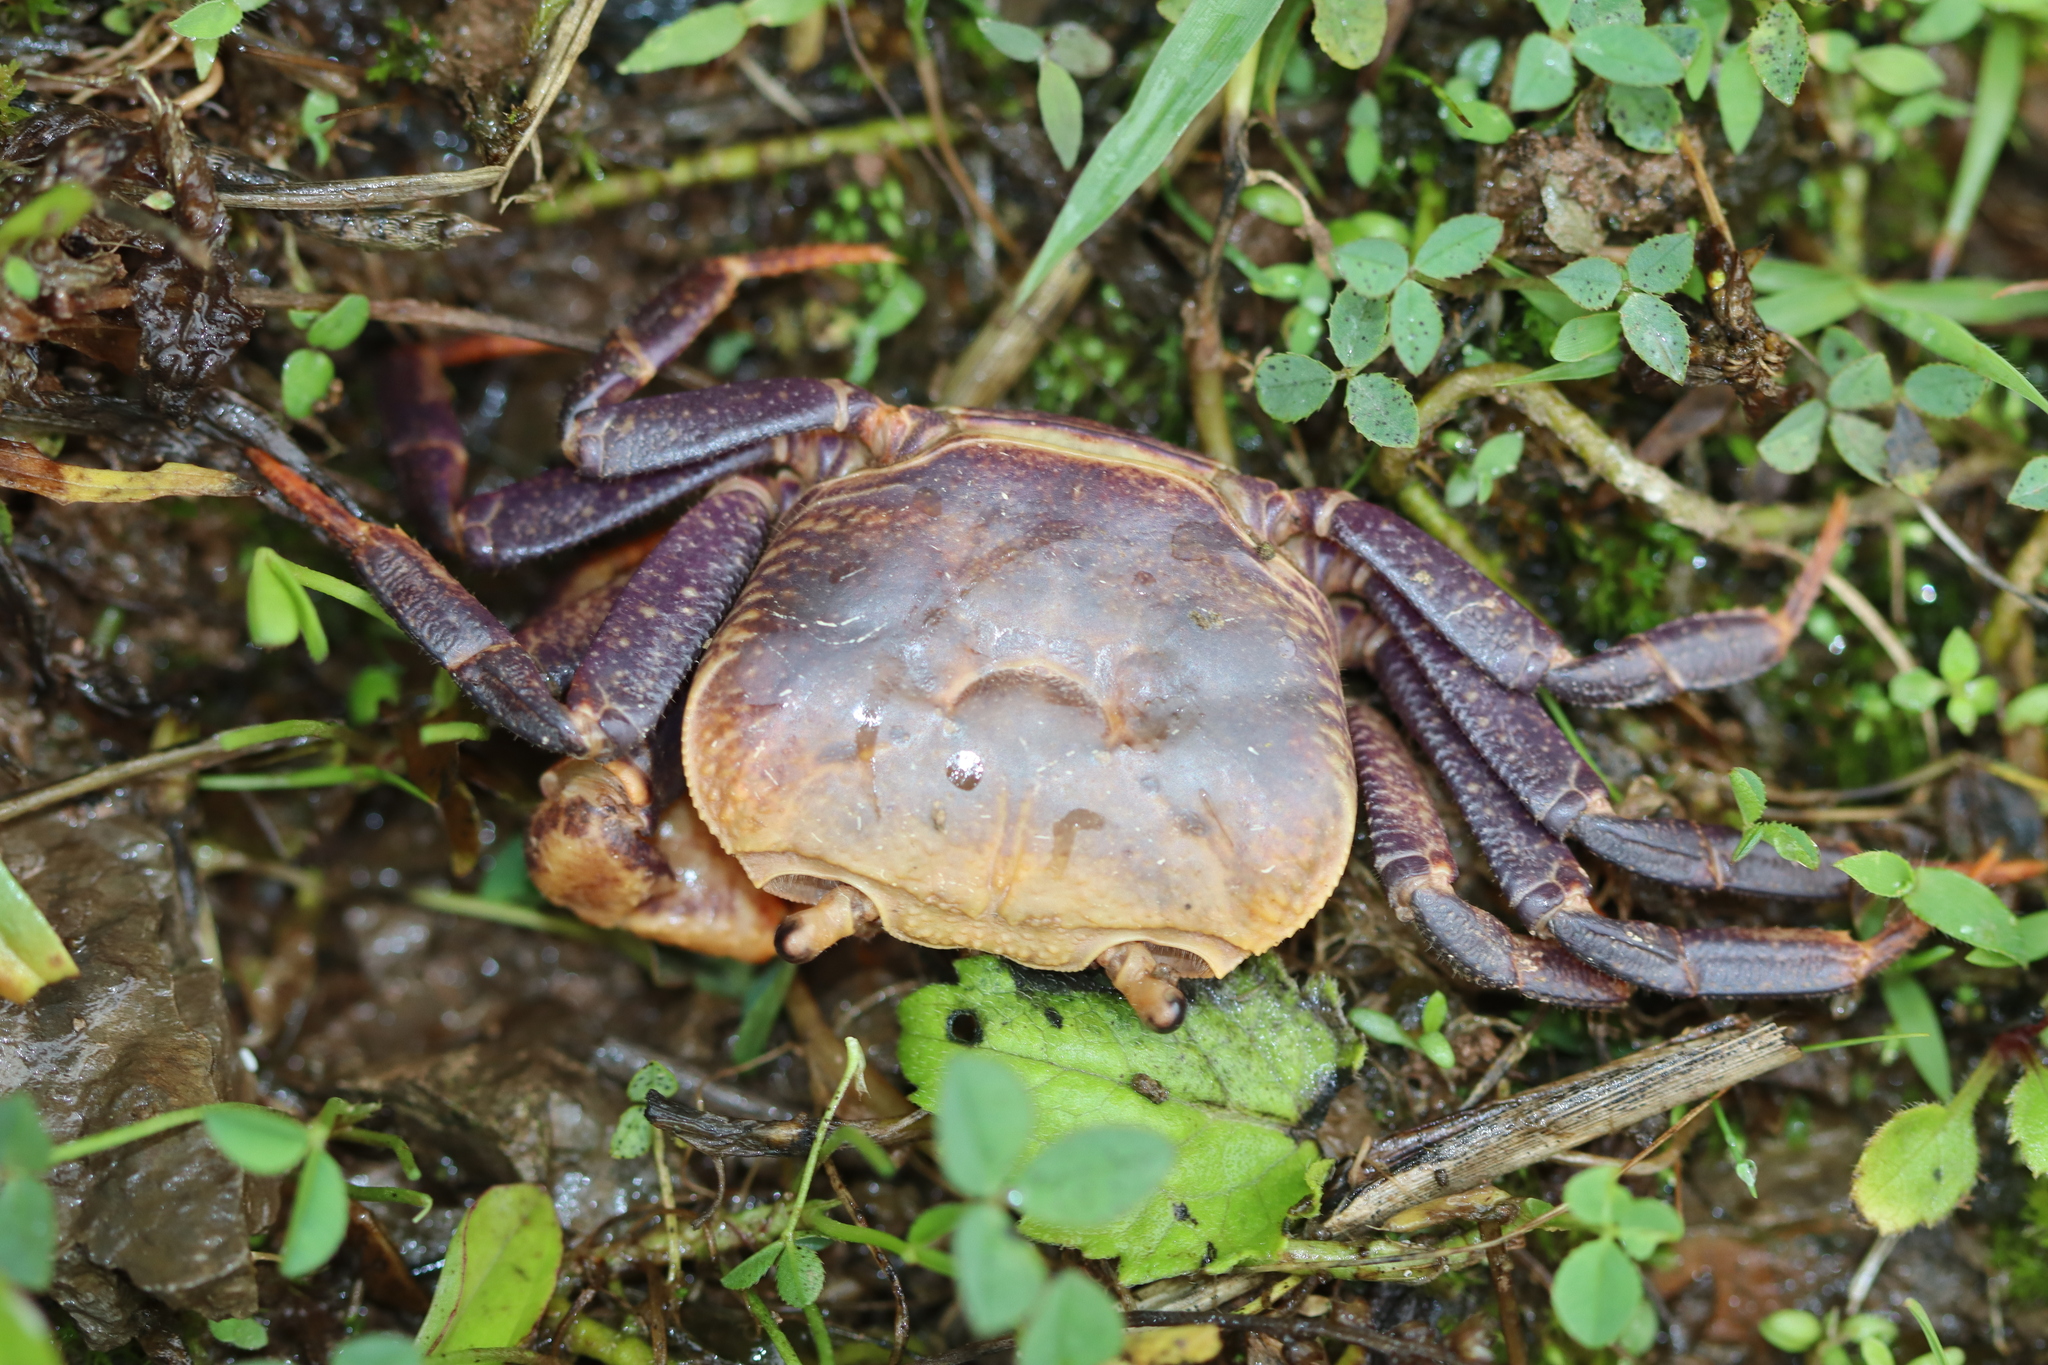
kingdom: Animalia
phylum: Arthropoda
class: Malacostraca
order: Decapoda
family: Potamidae
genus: Himalayapotamon
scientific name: Himalayapotamon emphyseteum
